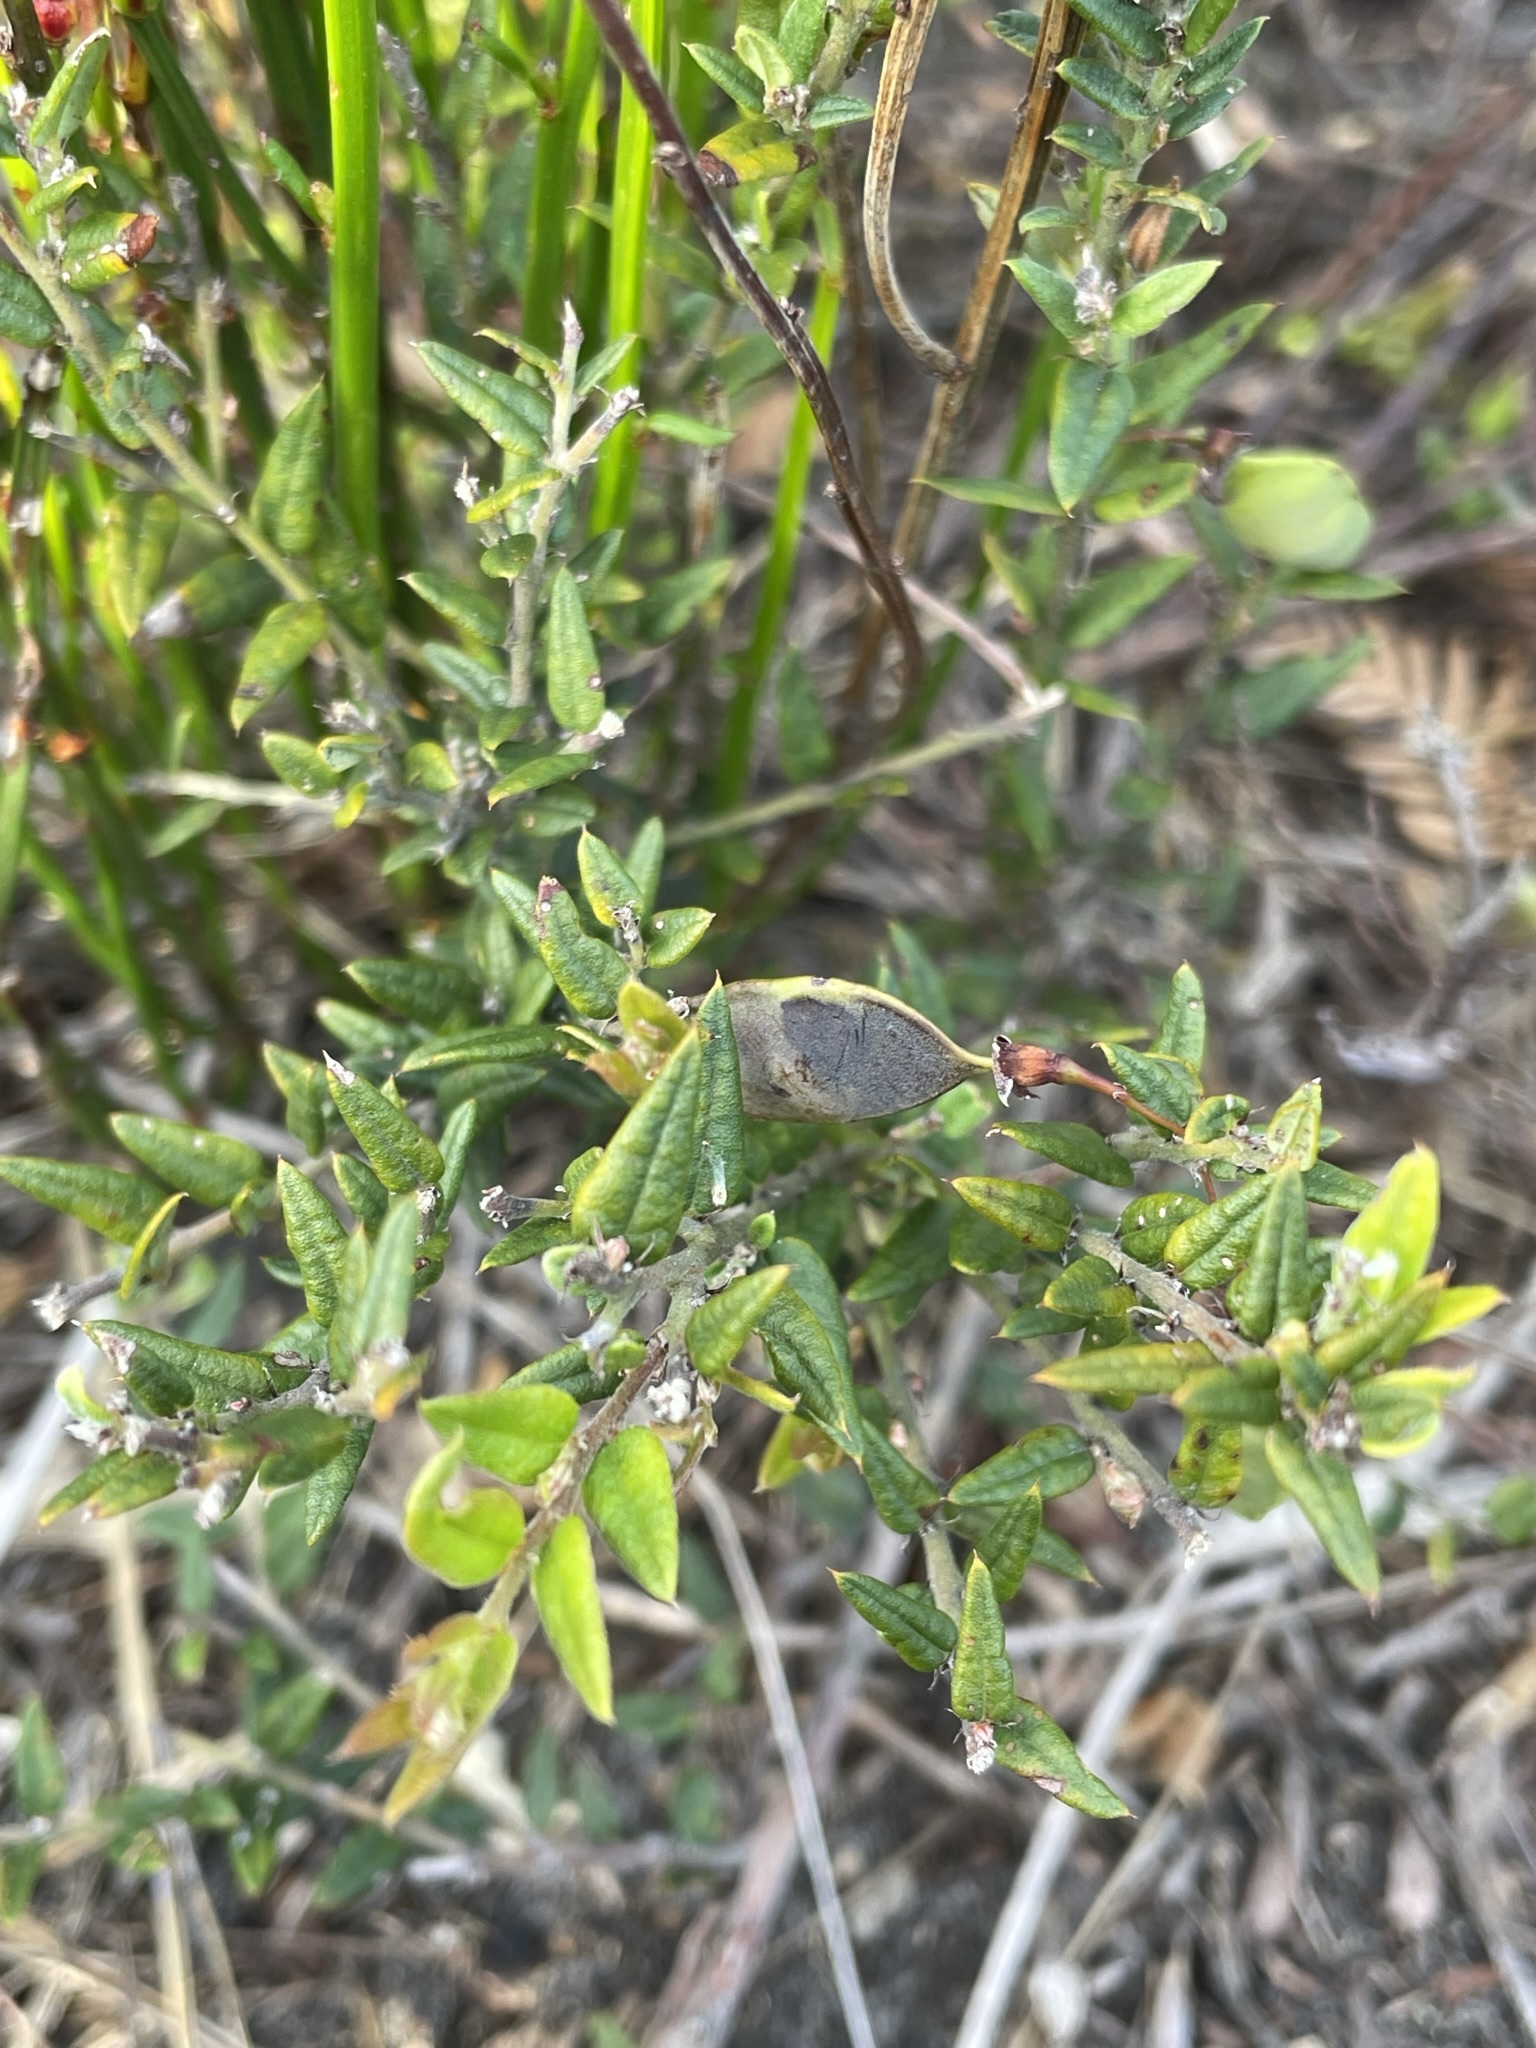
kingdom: Plantae
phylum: Tracheophyta
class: Magnoliopsida
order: Fabales
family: Fabaceae
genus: Bossiaea
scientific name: Bossiaea cinerea
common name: Showy bossiaea
